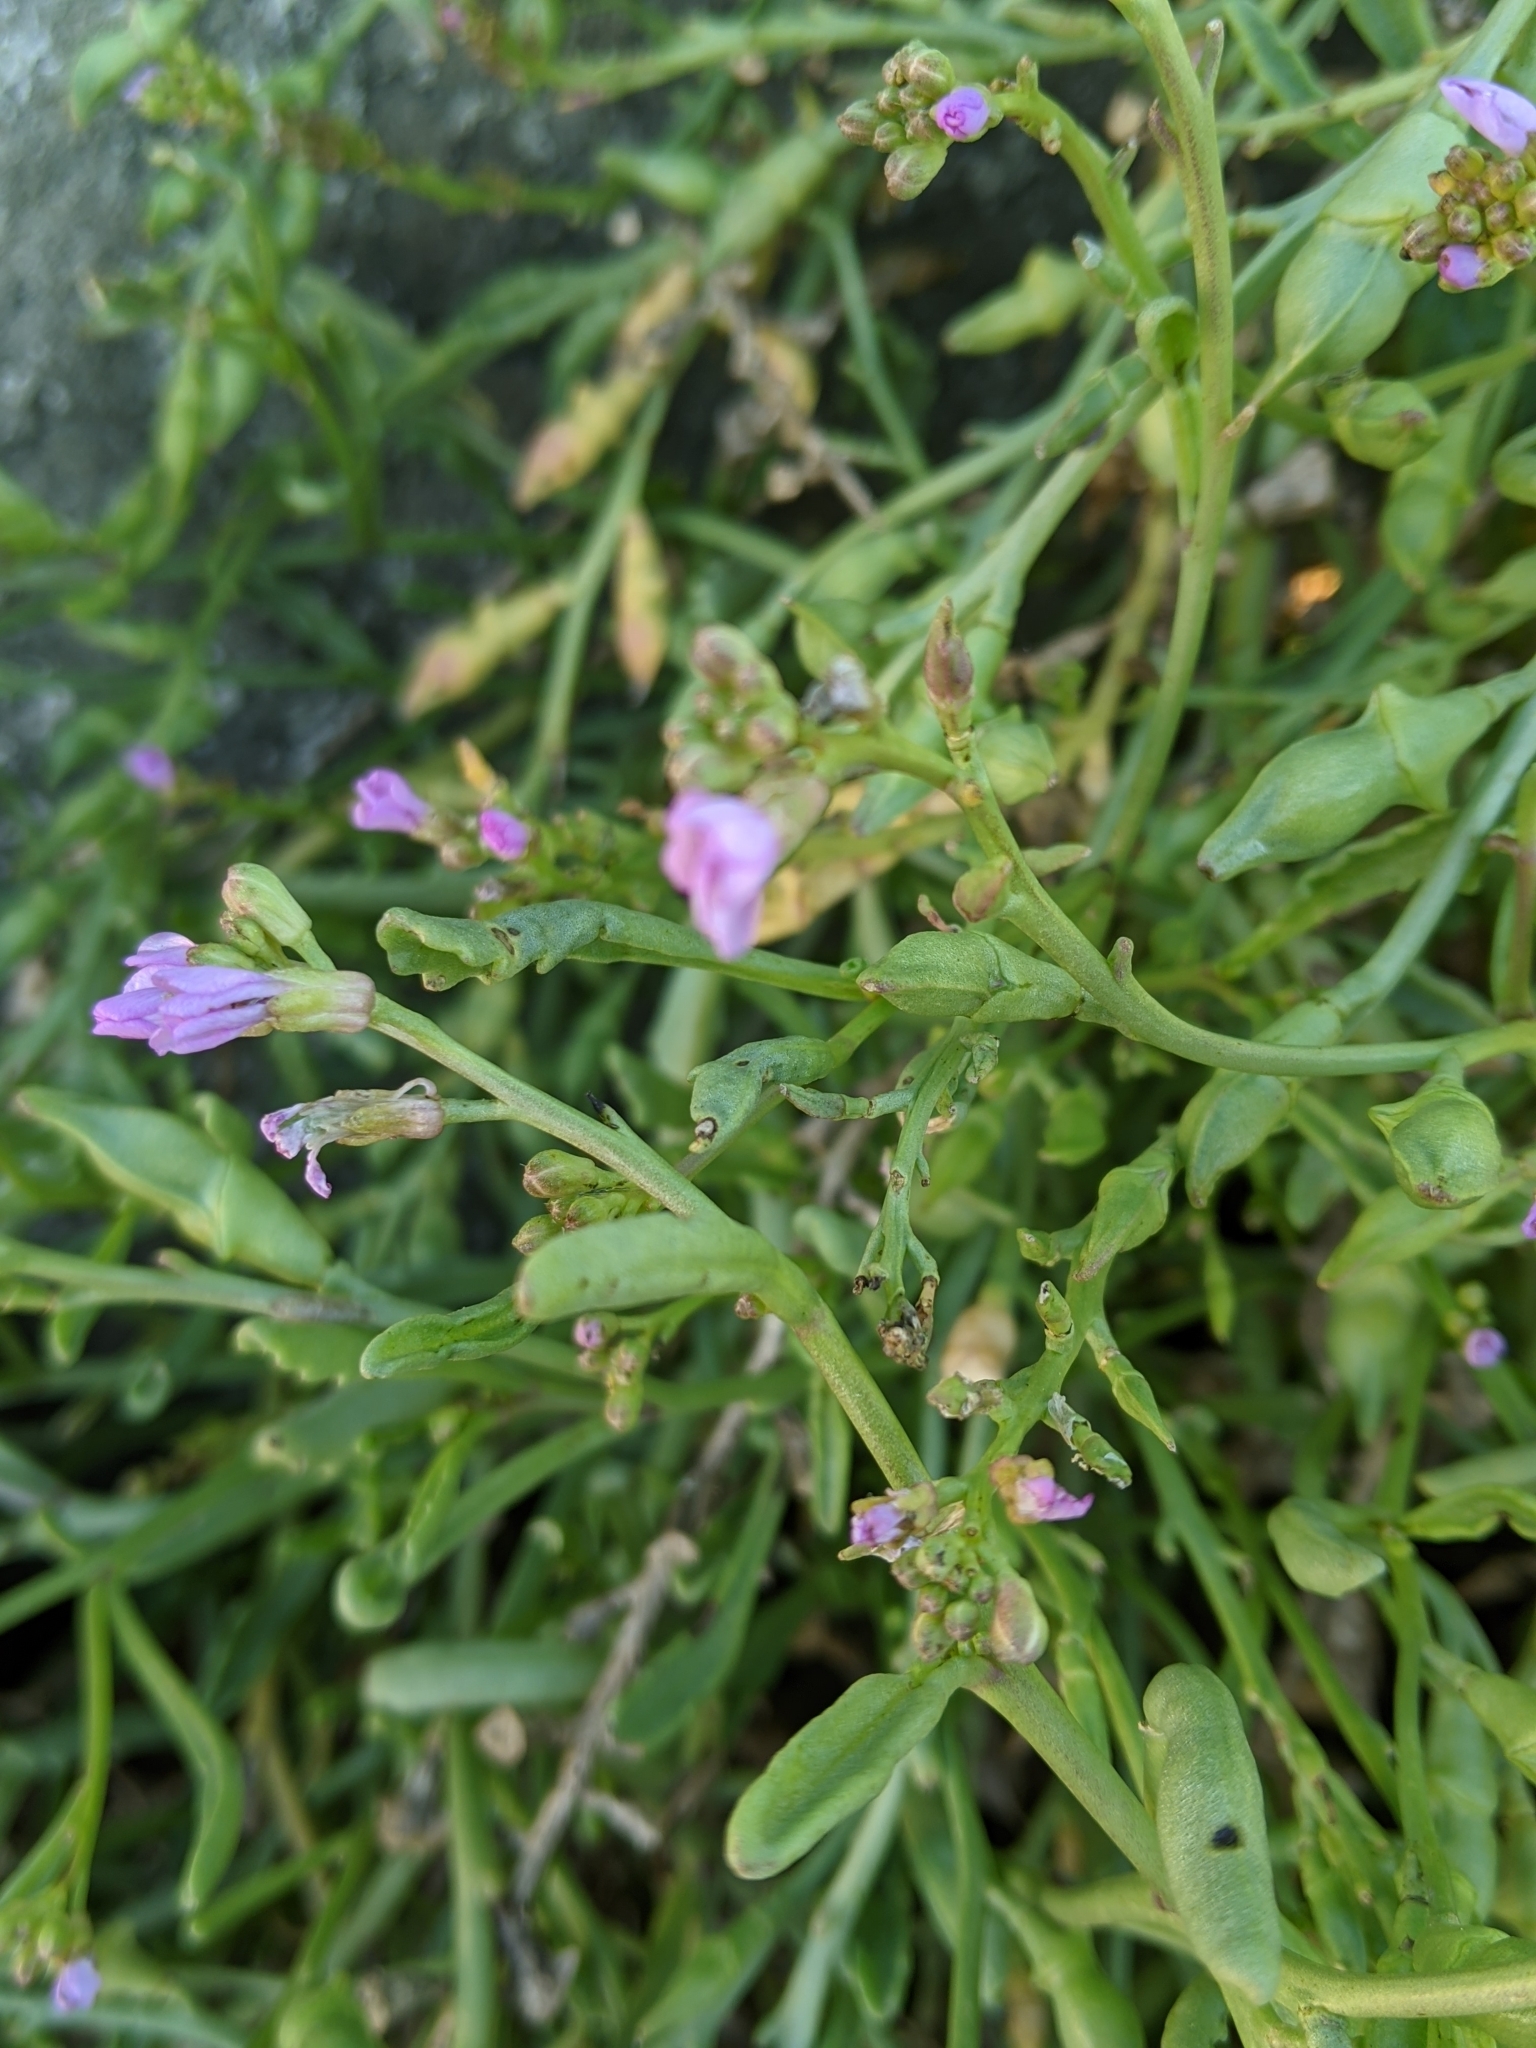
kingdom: Plantae
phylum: Tracheophyta
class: Magnoliopsida
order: Brassicales
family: Brassicaceae
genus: Cakile
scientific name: Cakile maritima
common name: Sea rocket
